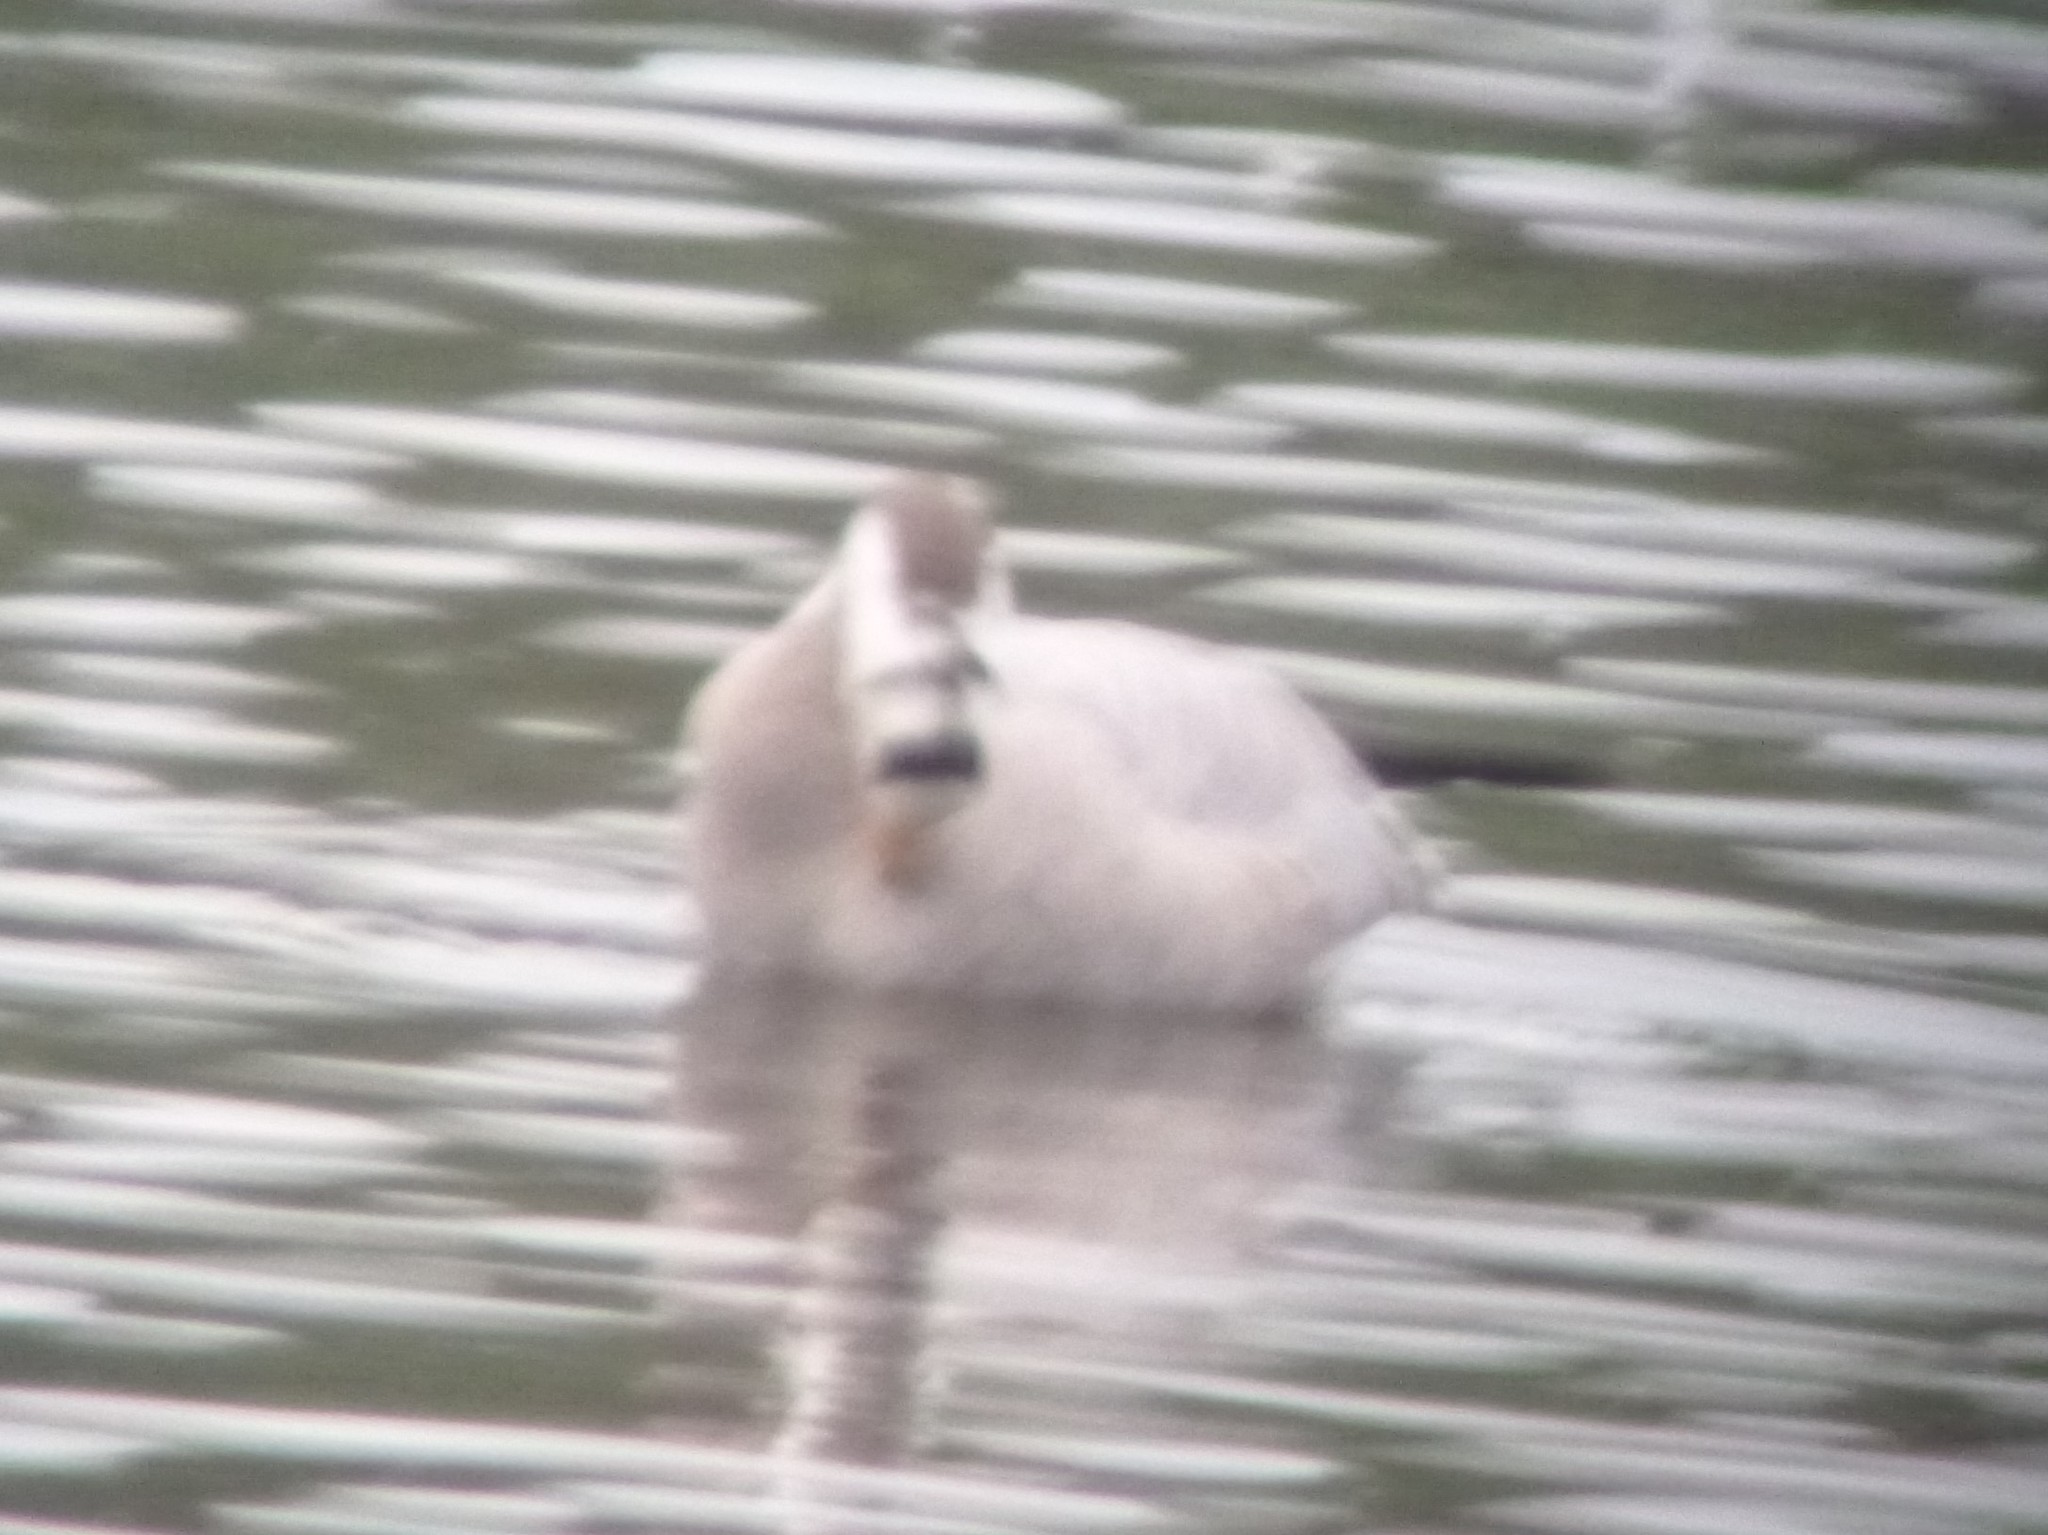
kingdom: Animalia
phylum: Chordata
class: Aves
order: Anseriformes
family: Anatidae
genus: Anser
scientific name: Anser indicus
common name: Bar-headed goose
